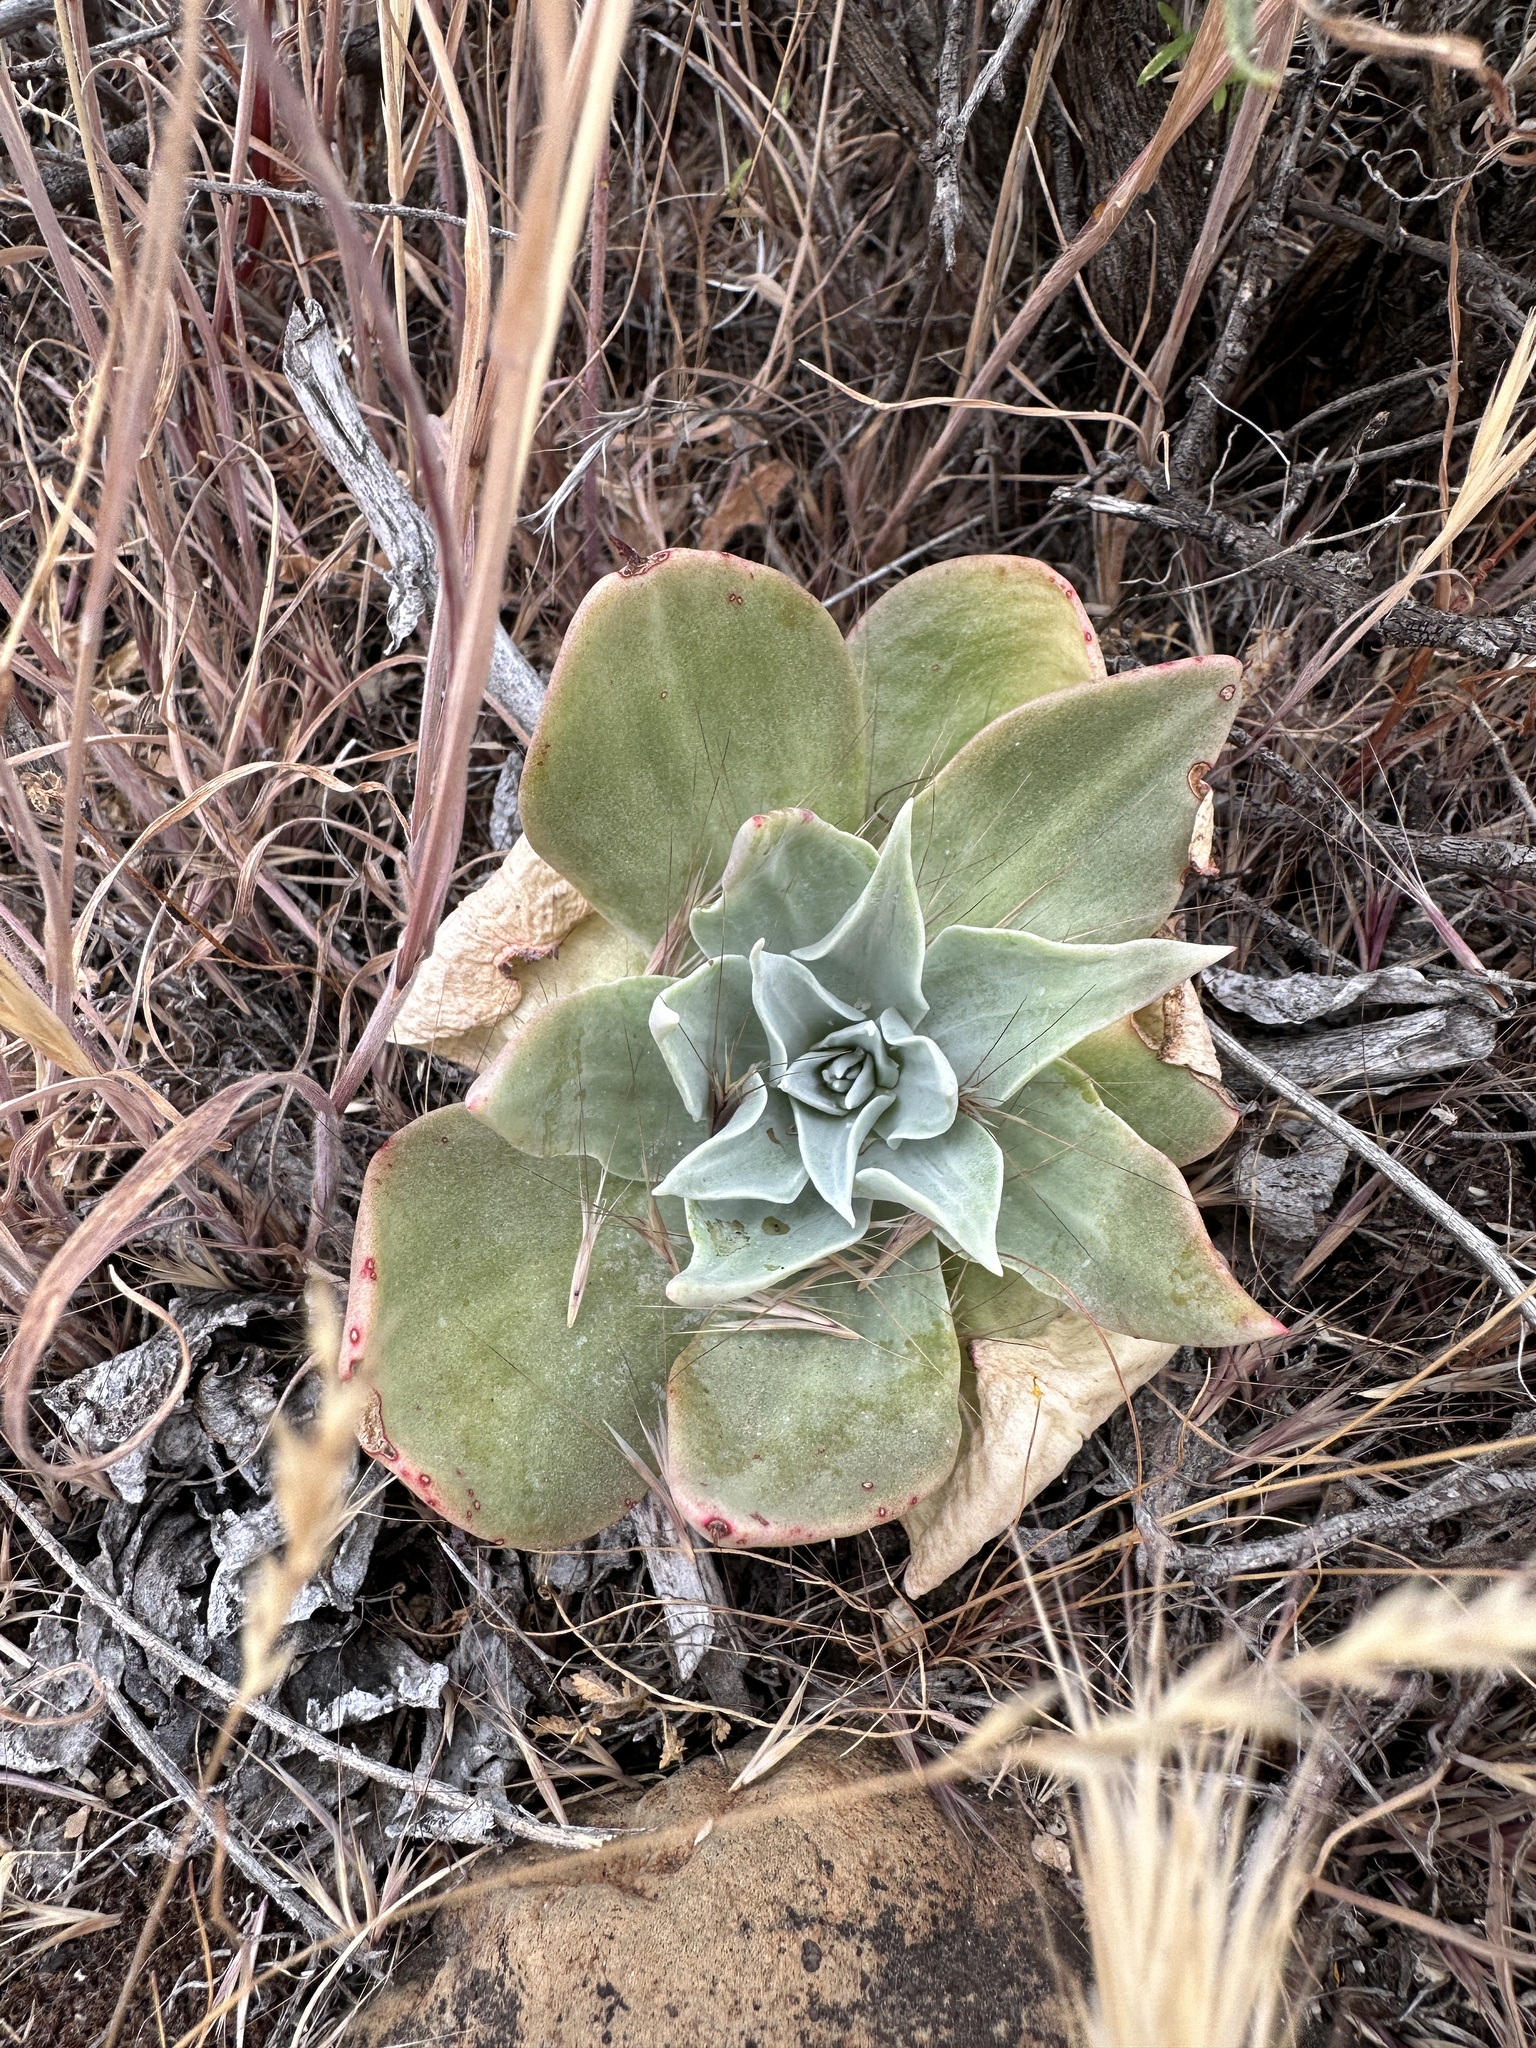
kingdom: Plantae
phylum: Tracheophyta
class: Magnoliopsida
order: Saxifragales
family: Crassulaceae
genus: Dudleya
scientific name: Dudleya arizonica
